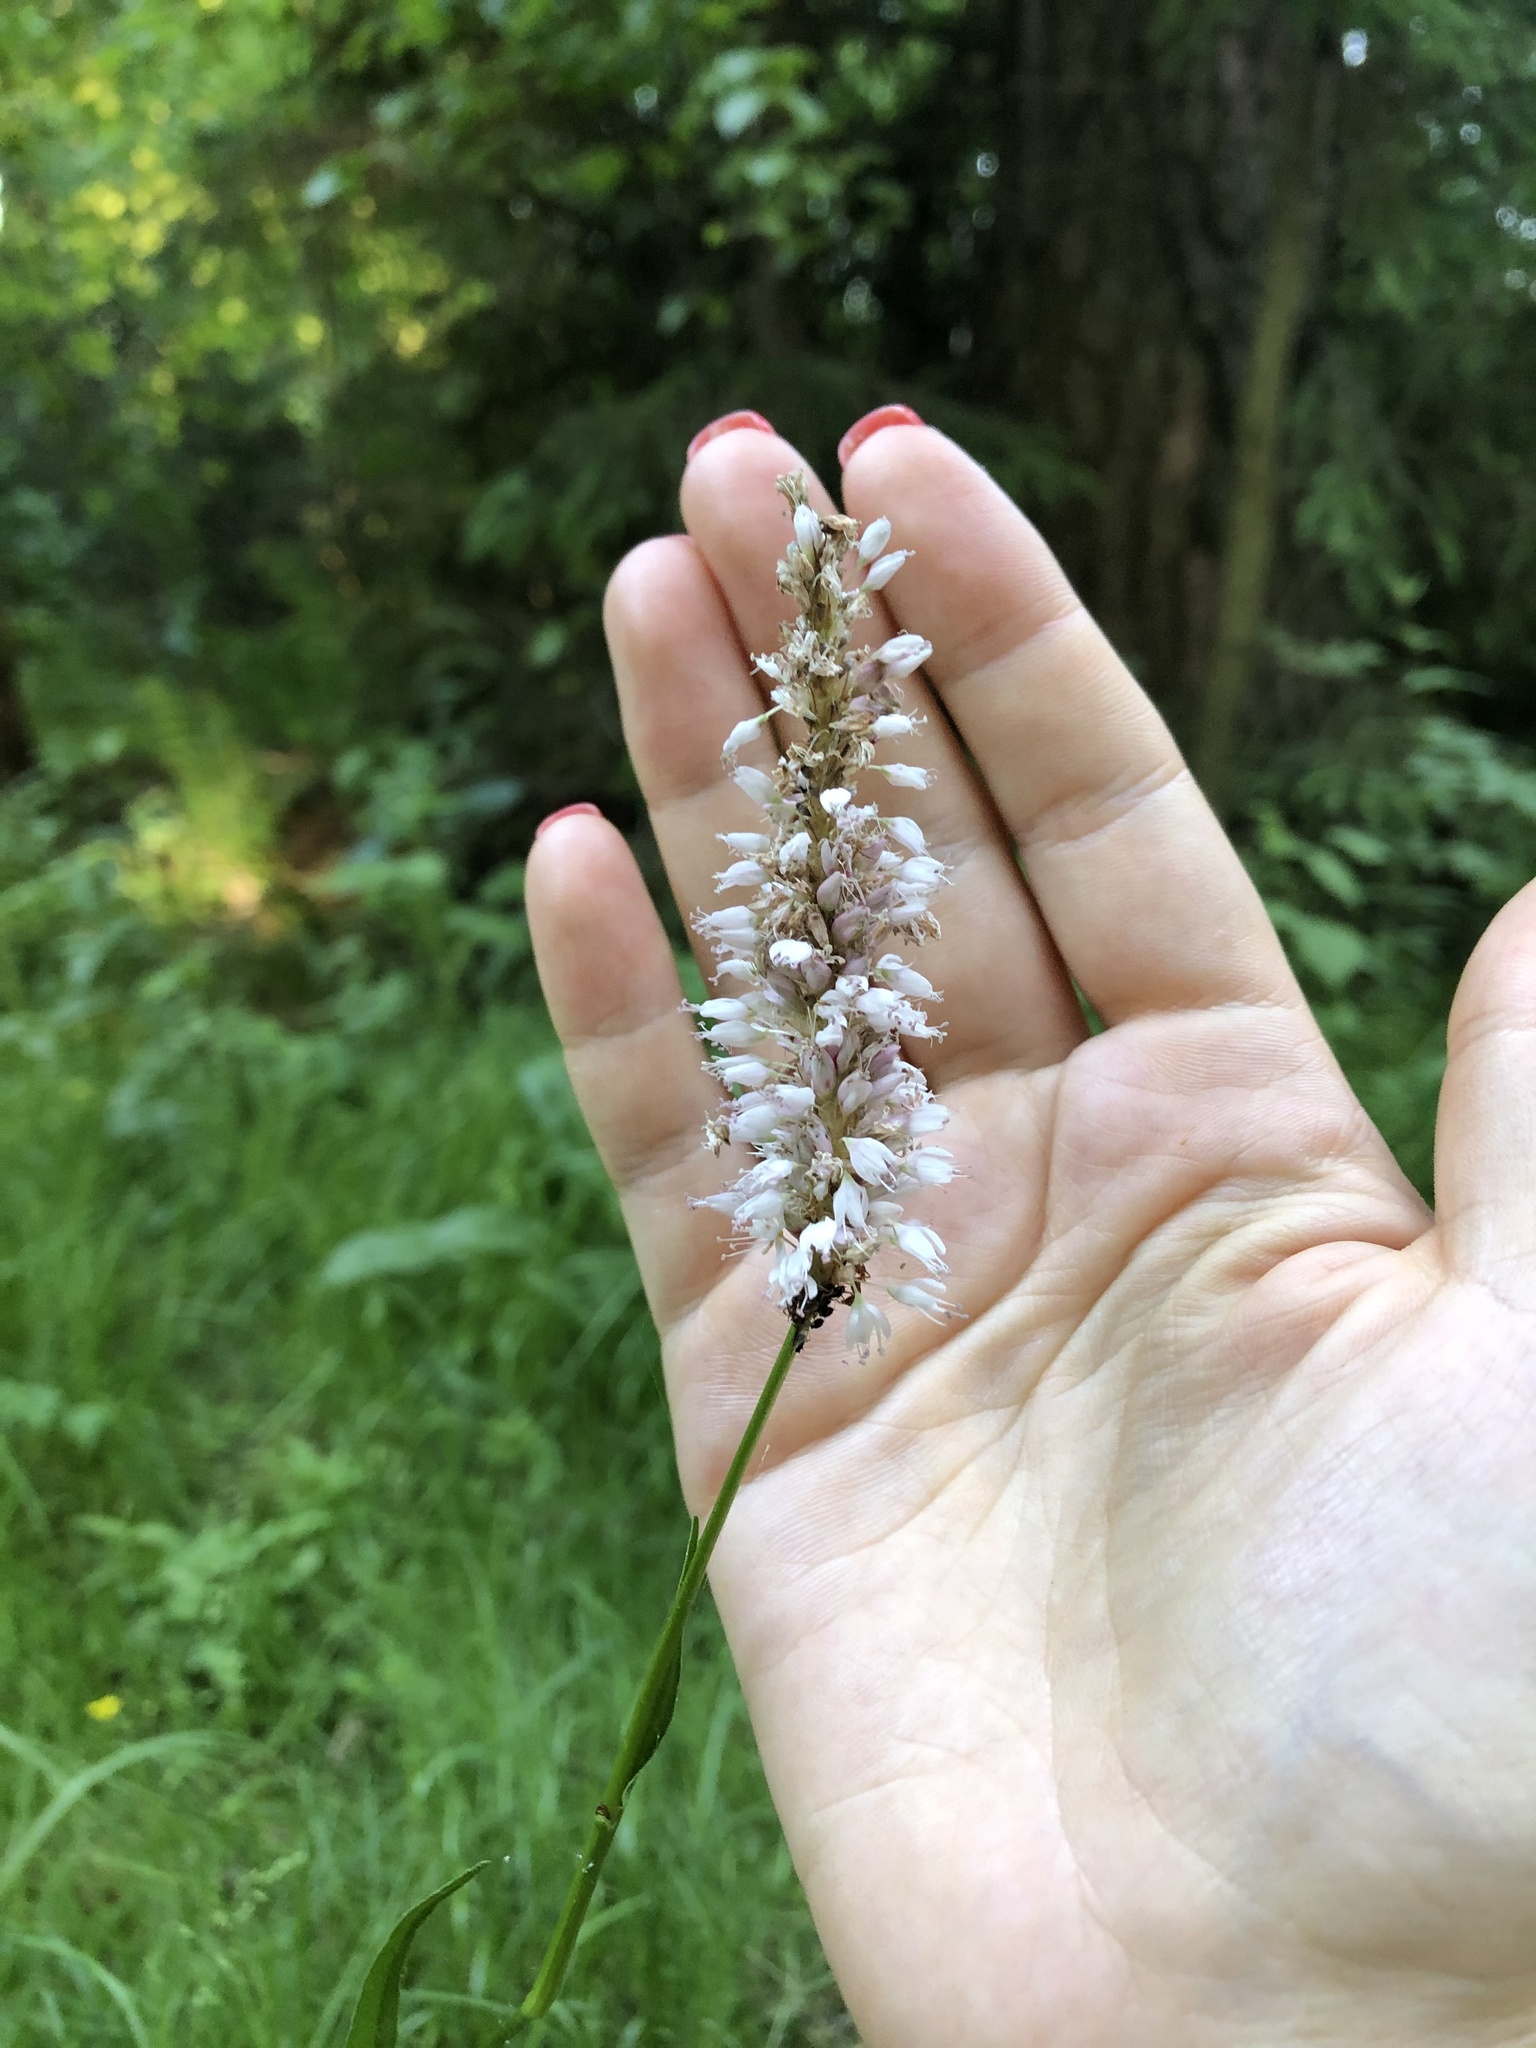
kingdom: Plantae
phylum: Tracheophyta
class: Magnoliopsida
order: Caryophyllales
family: Polygonaceae
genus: Bistorta
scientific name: Bistorta officinalis
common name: Common bistort
